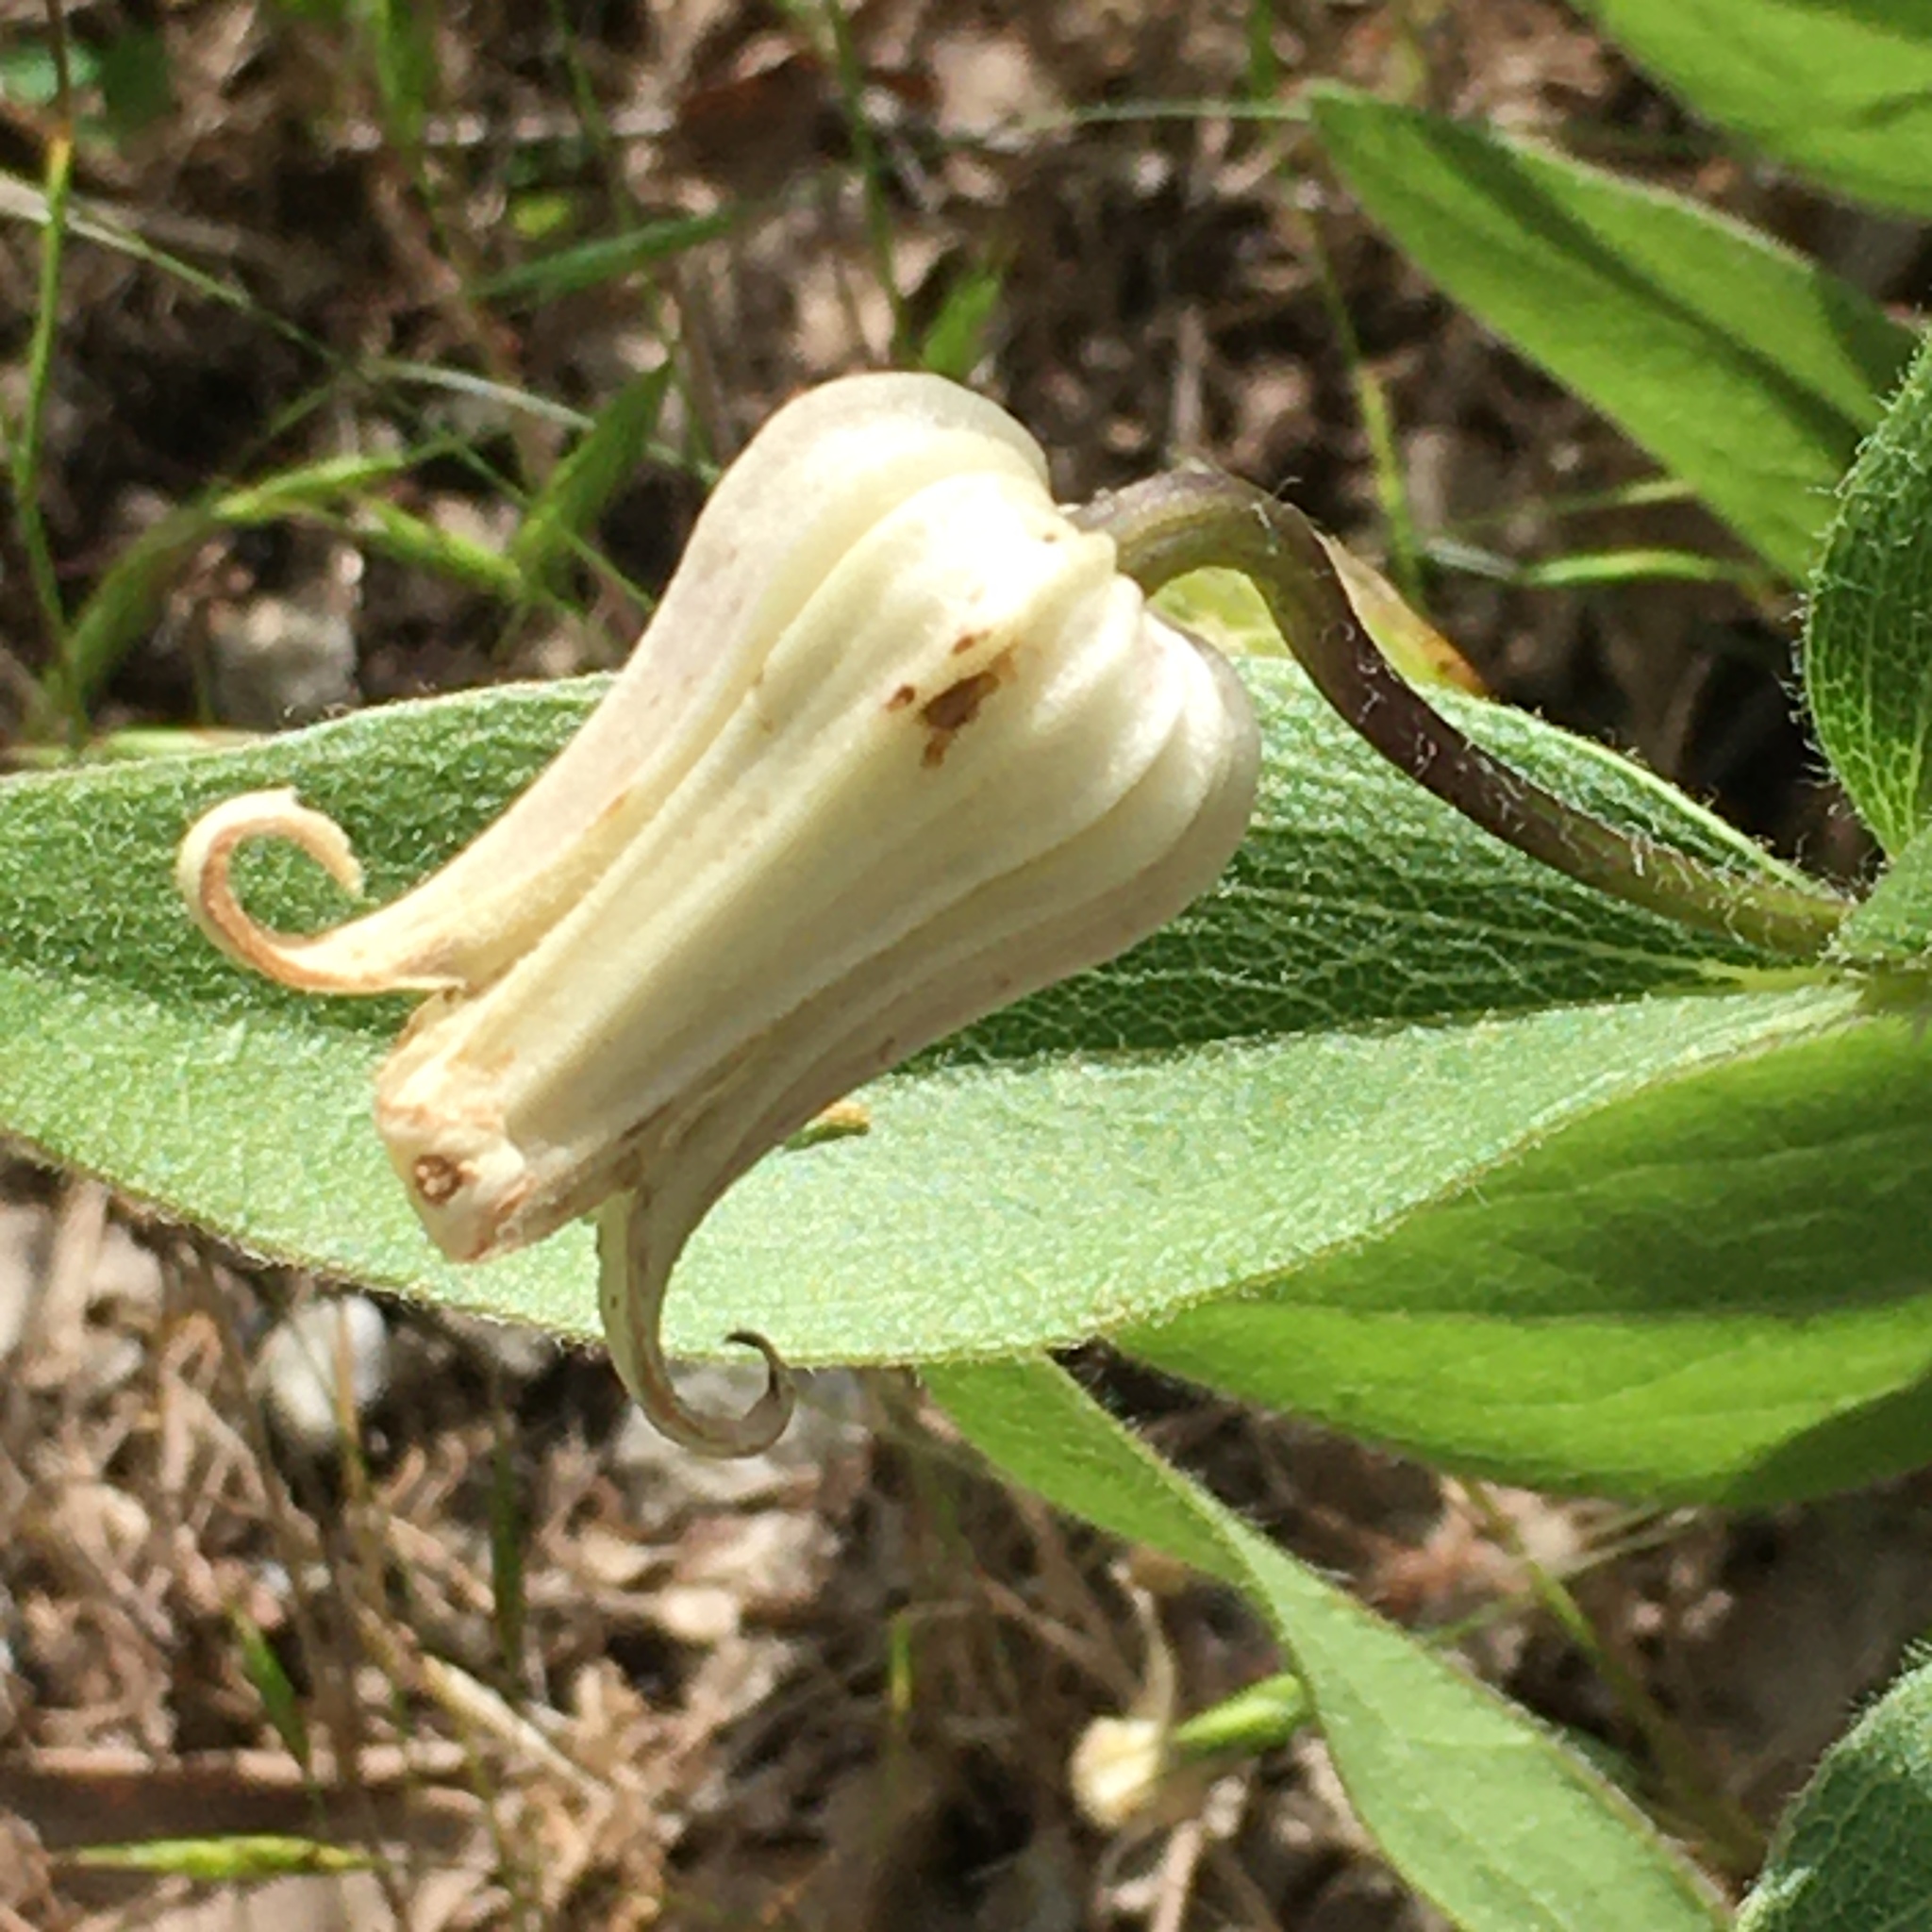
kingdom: Plantae
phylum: Tracheophyta
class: Magnoliopsida
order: Ranunculales
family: Ranunculaceae
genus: Clematis
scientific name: Clematis fremontii
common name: Fremont's clematis
